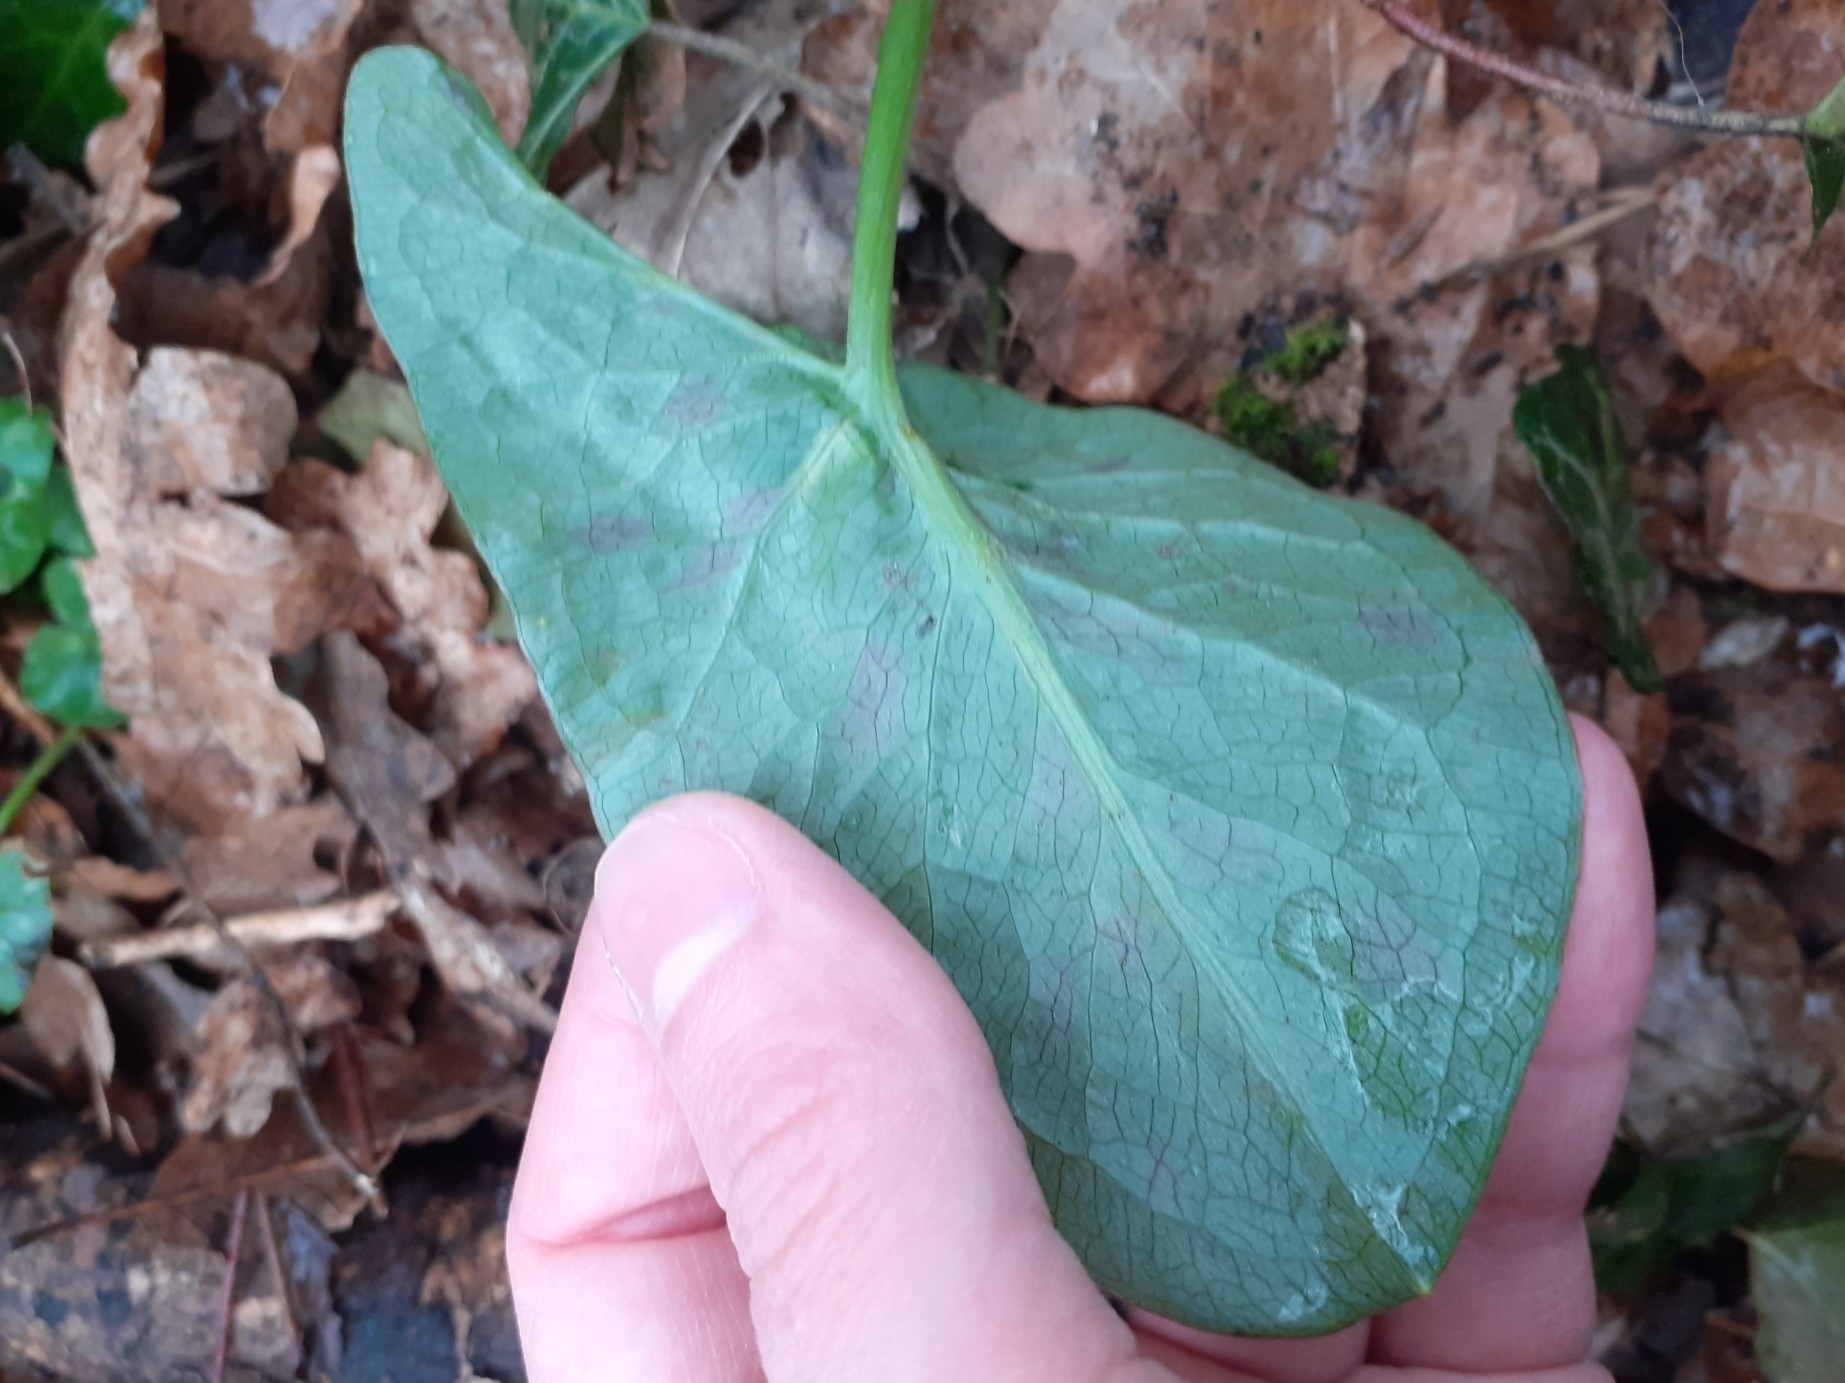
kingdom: Plantae
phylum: Tracheophyta
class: Liliopsida
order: Alismatales
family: Araceae
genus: Arum
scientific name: Arum maculatum
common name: Lords-and-ladies
